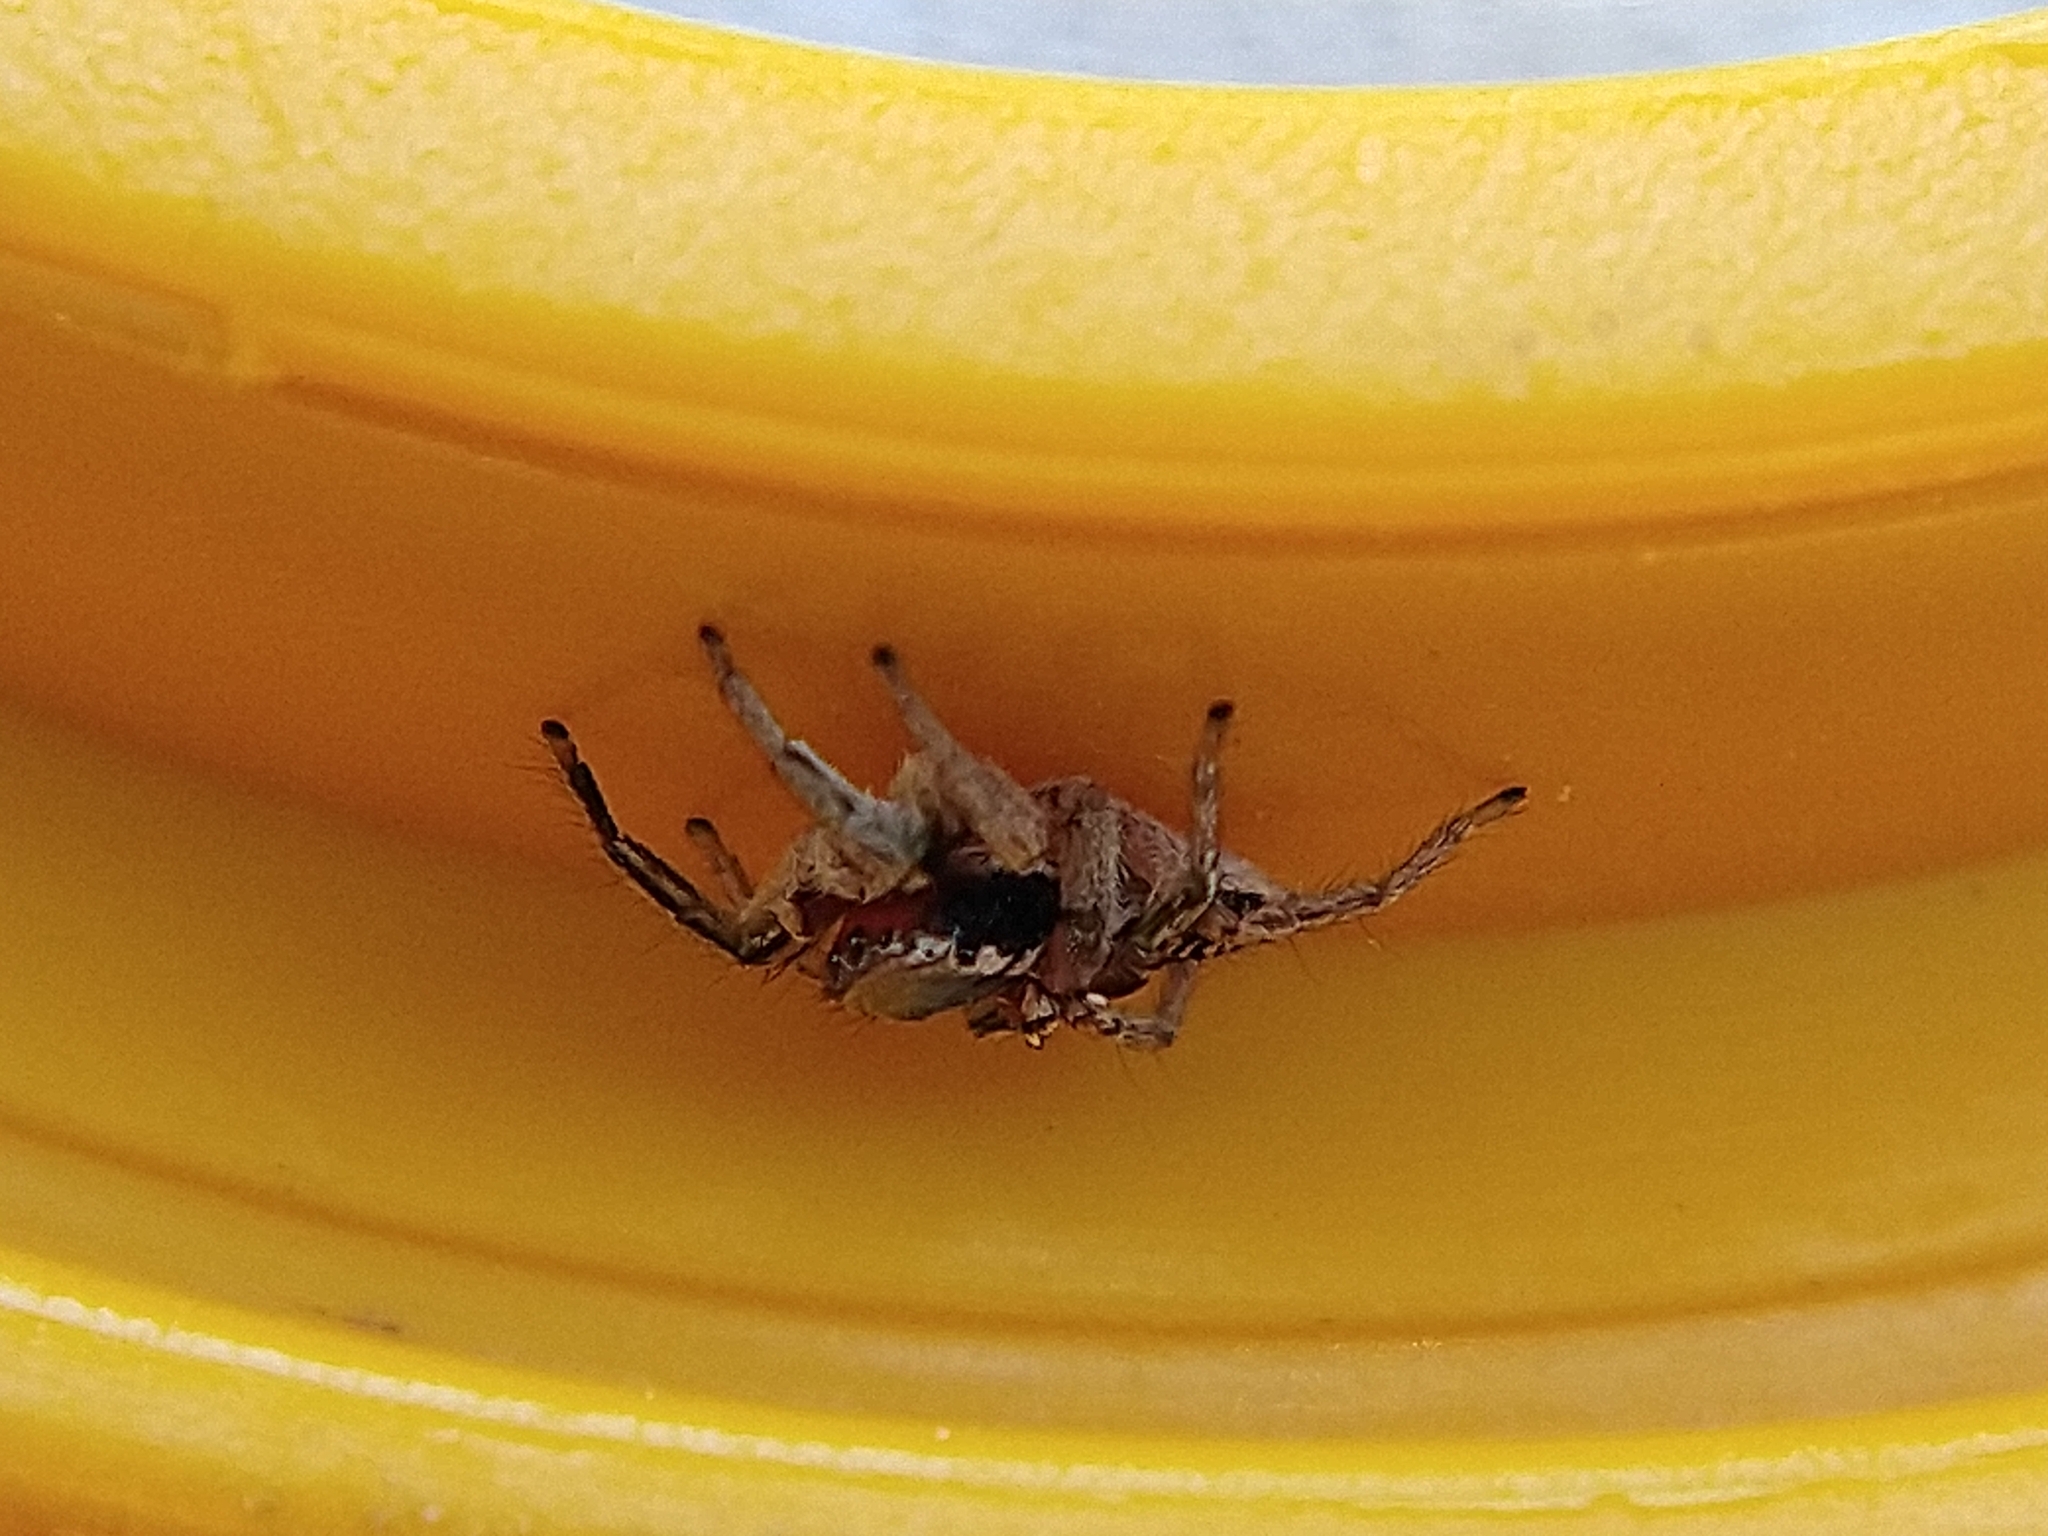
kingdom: Animalia
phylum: Arthropoda
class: Arachnida
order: Araneae
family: Salticidae
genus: Habronattus
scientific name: Habronattus pyrrithrix
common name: Jumping spider
